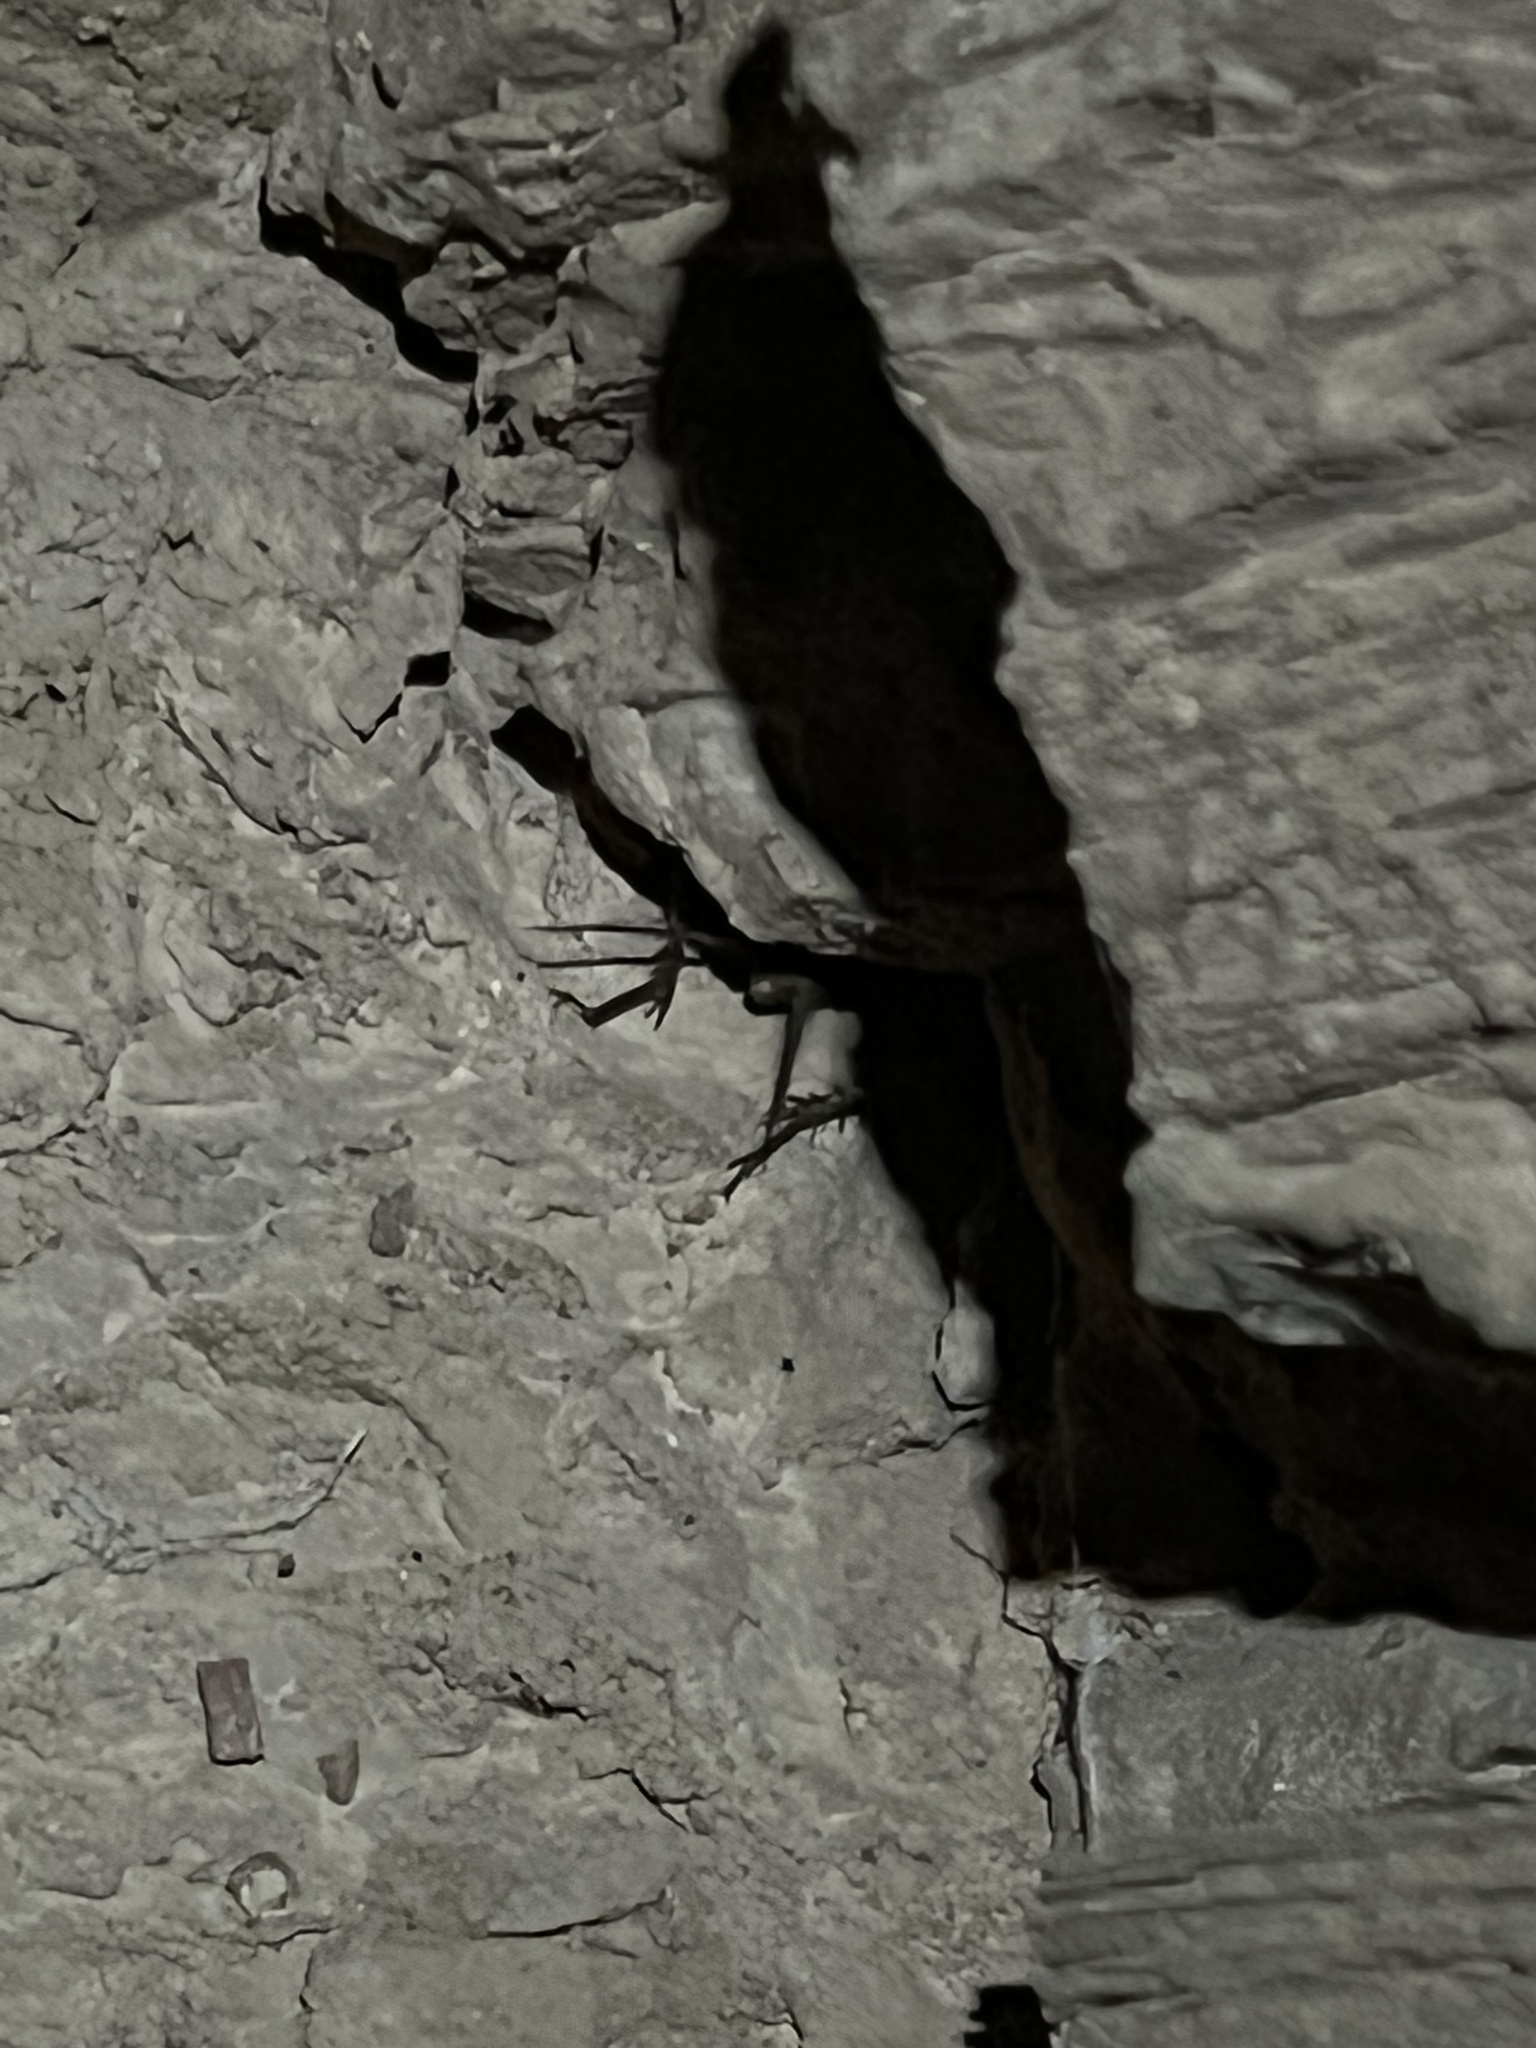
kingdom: Animalia
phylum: Arthropoda
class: Insecta
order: Orthoptera
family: Gryllidae
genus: Gryllus
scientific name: Gryllus navajo
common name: Painted desert field cricket
